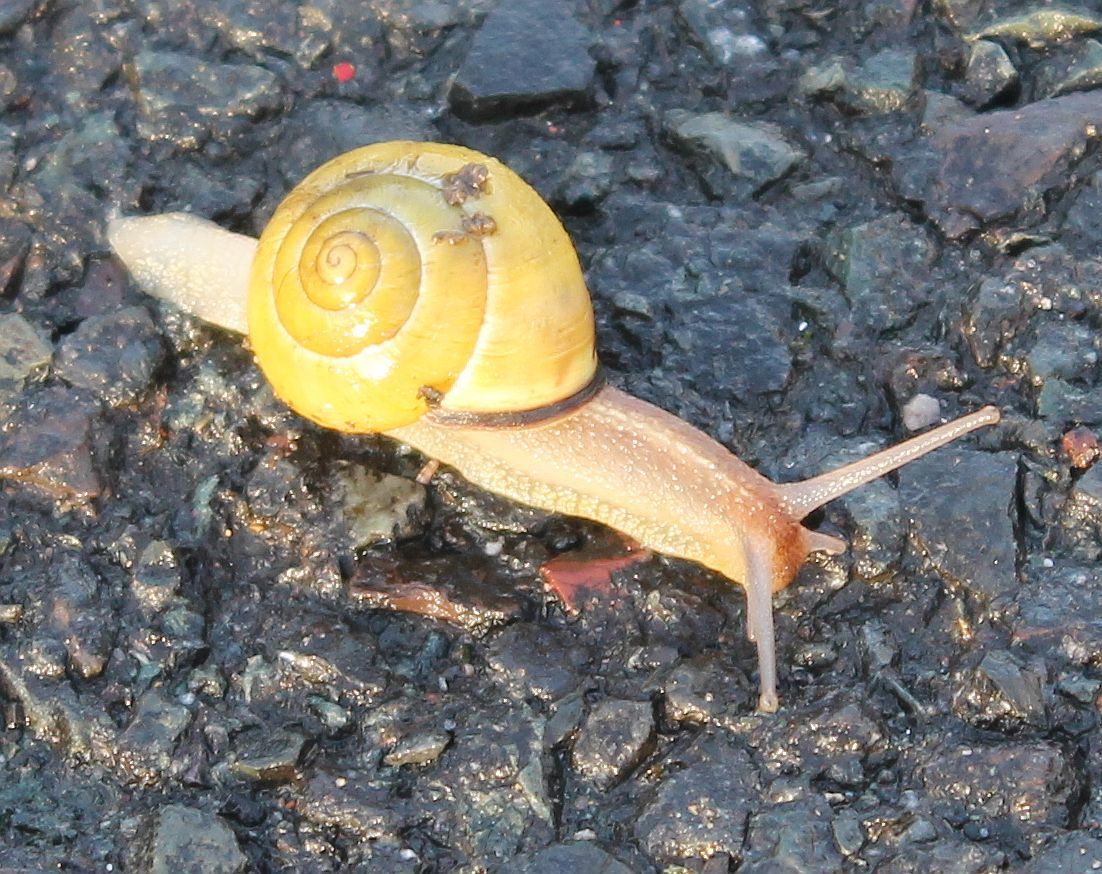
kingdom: Animalia
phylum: Mollusca
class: Gastropoda
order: Stylommatophora
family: Helicidae
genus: Cepaea
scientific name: Cepaea nemoralis
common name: Grovesnail
